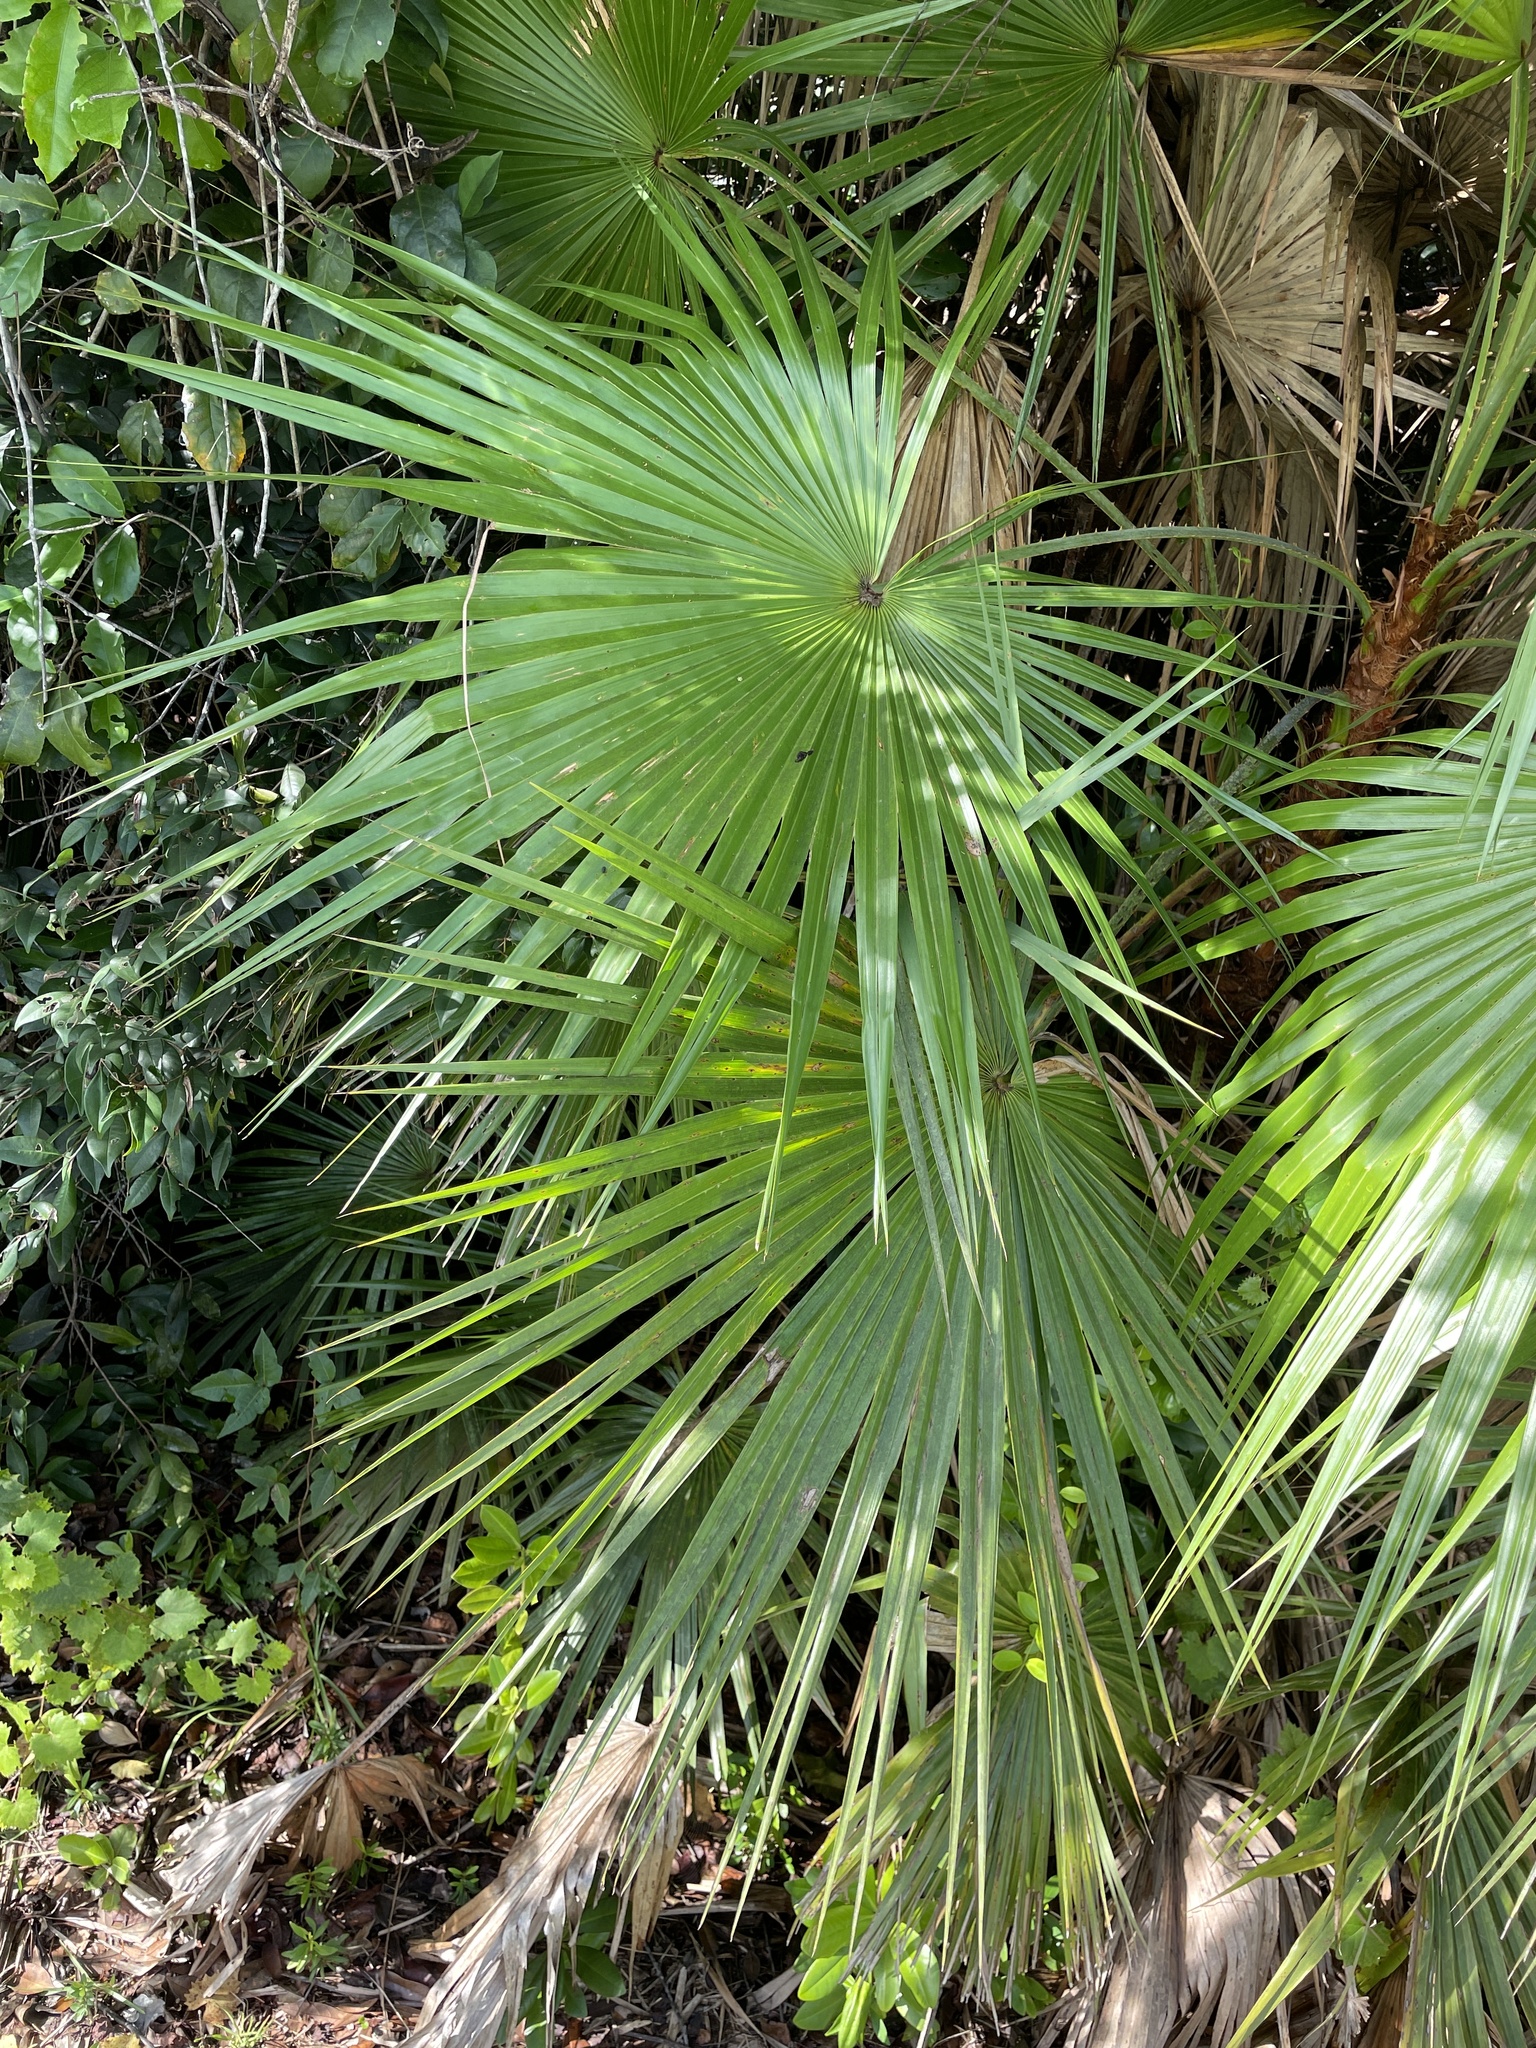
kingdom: Plantae
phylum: Tracheophyta
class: Liliopsida
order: Arecales
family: Arecaceae
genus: Acoelorraphe
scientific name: Acoelorraphe wrightii
